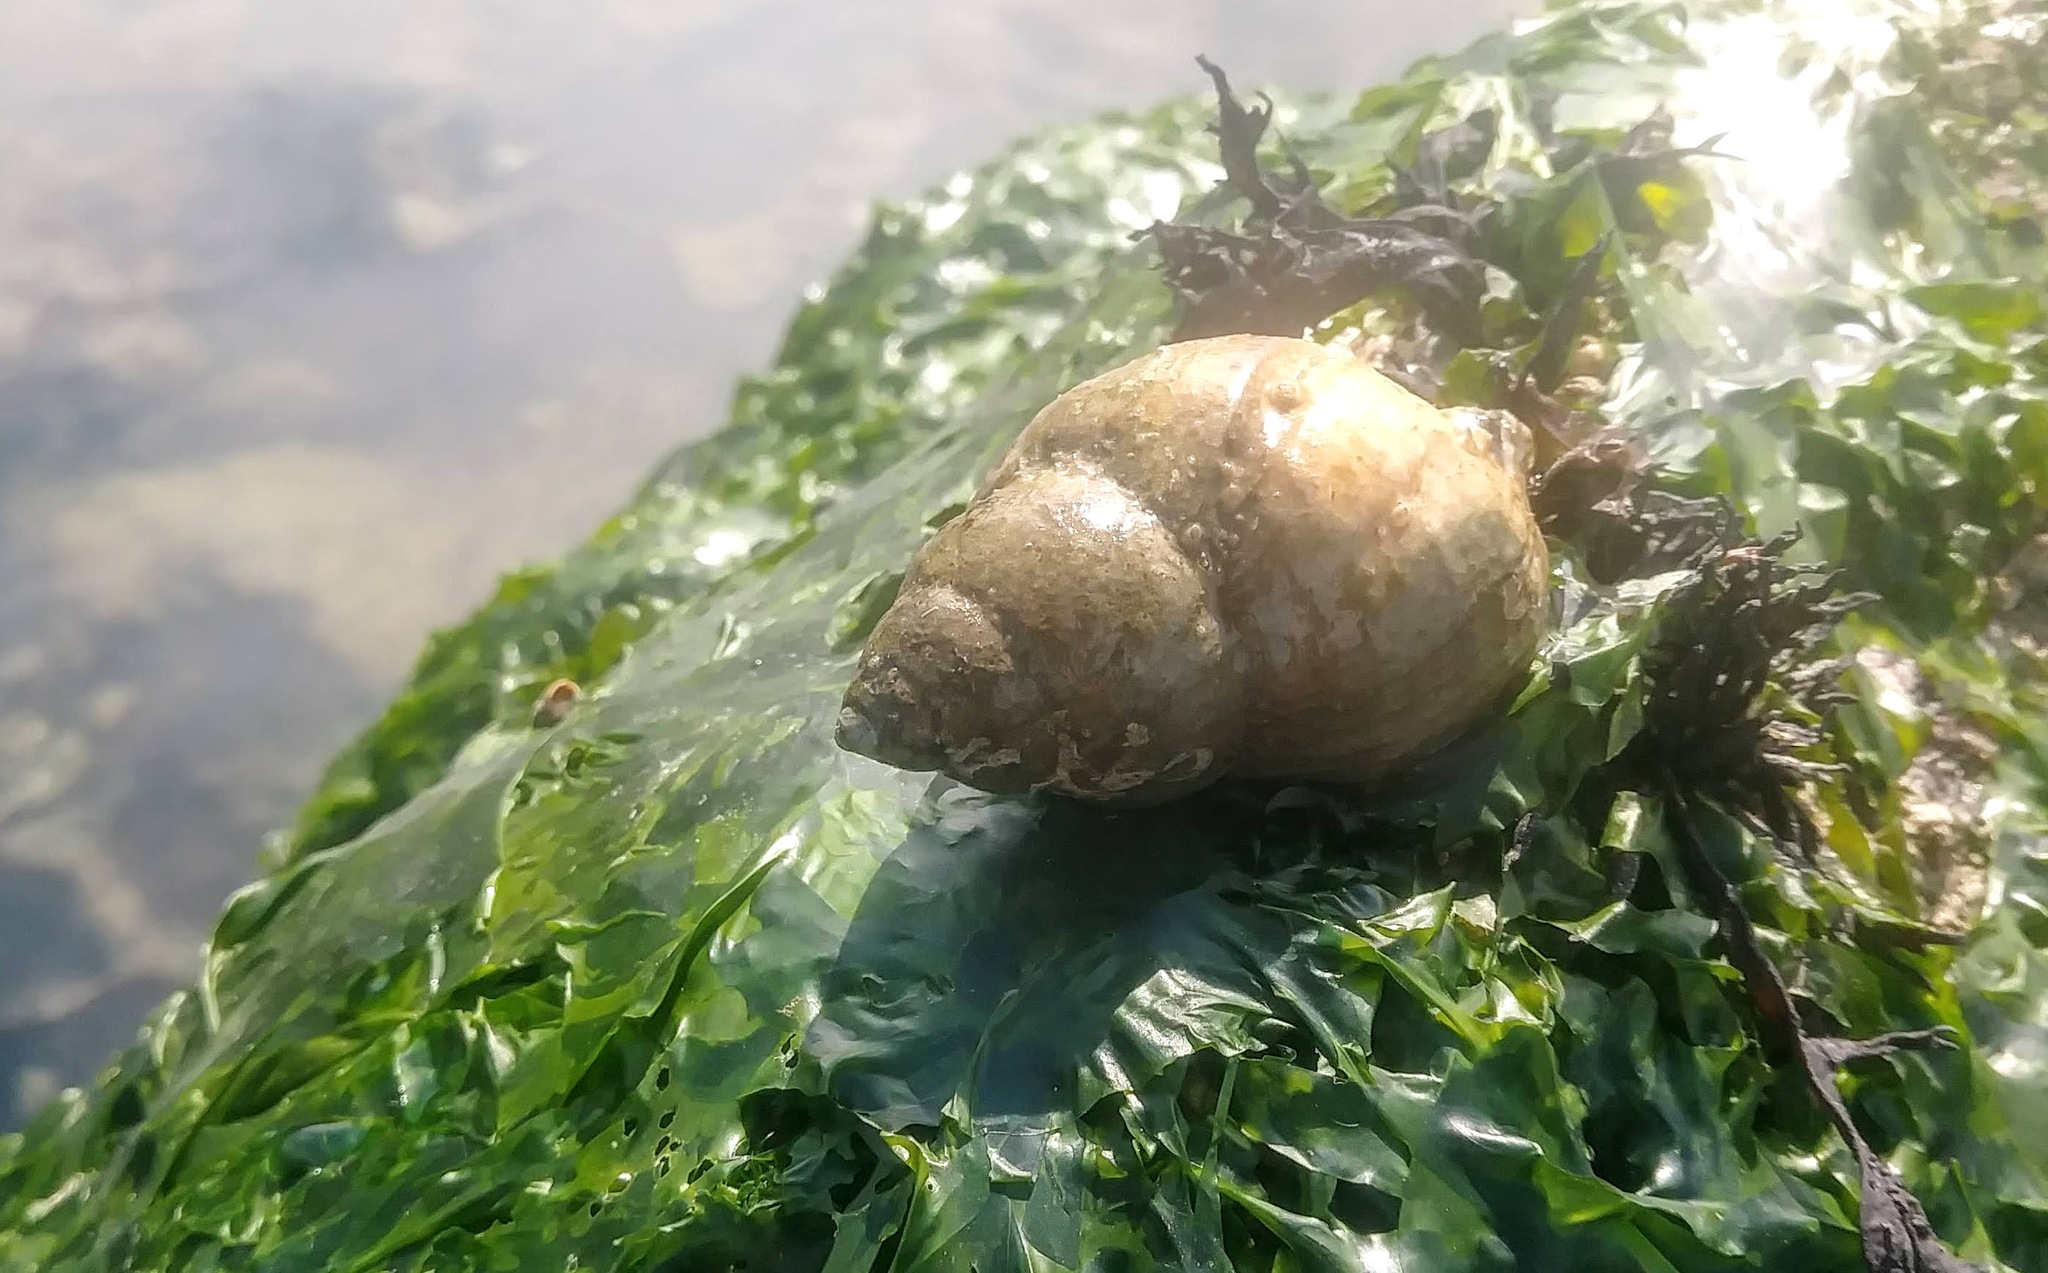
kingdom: Animalia
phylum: Mollusca
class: Gastropoda
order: Neogastropoda
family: Muricidae
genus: Nucella
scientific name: Nucella lamellosa
